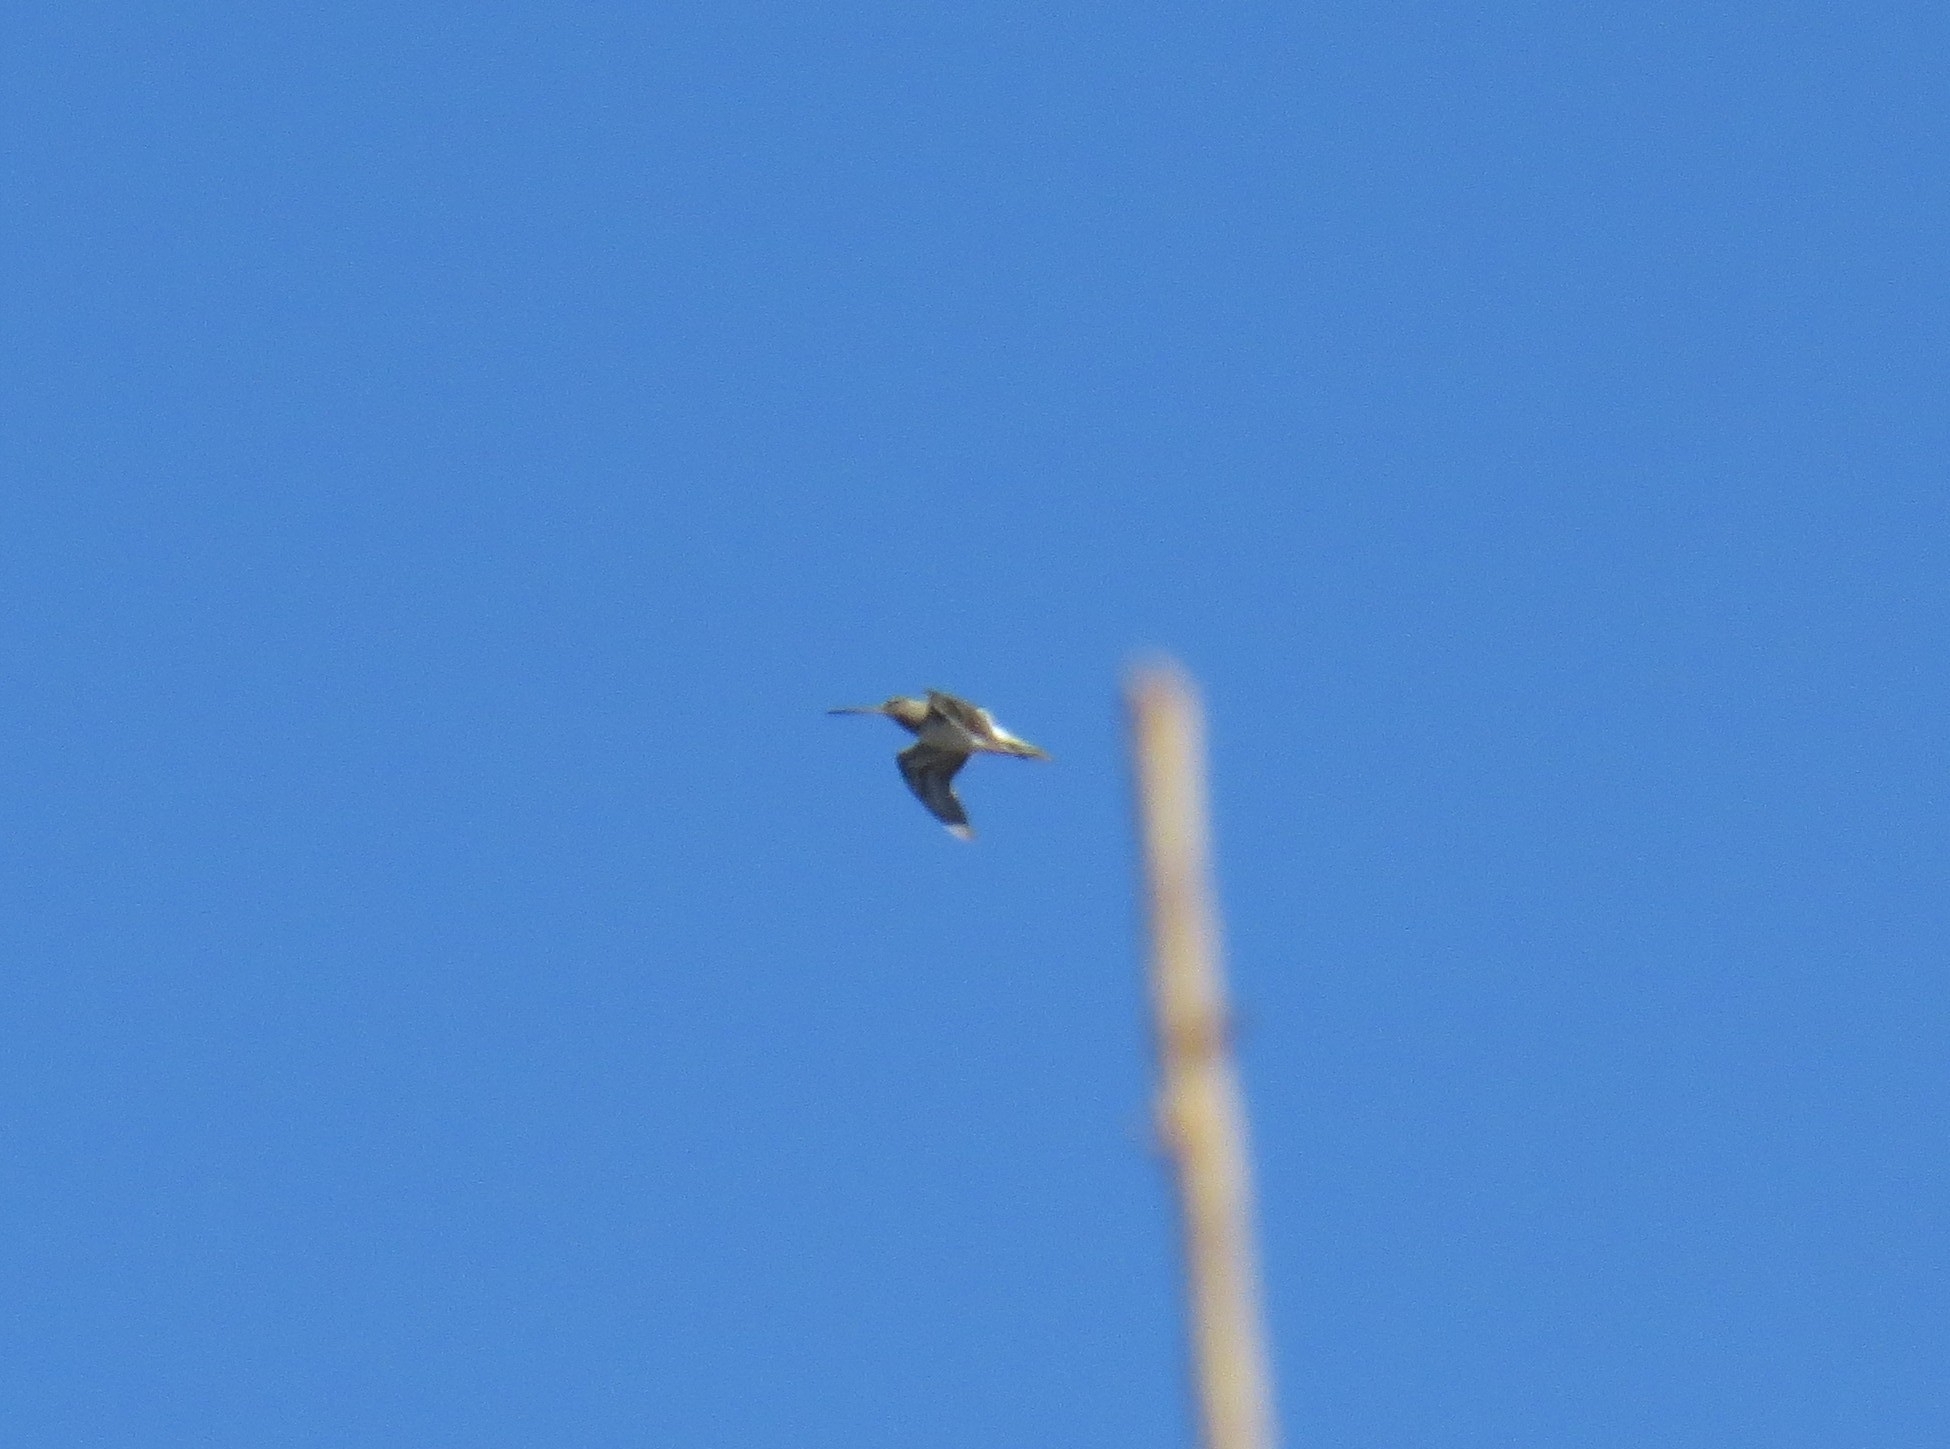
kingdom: Animalia
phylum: Chordata
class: Aves
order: Charadriiformes
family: Scolopacidae
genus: Gallinago
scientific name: Gallinago gallinago
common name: Common snipe
